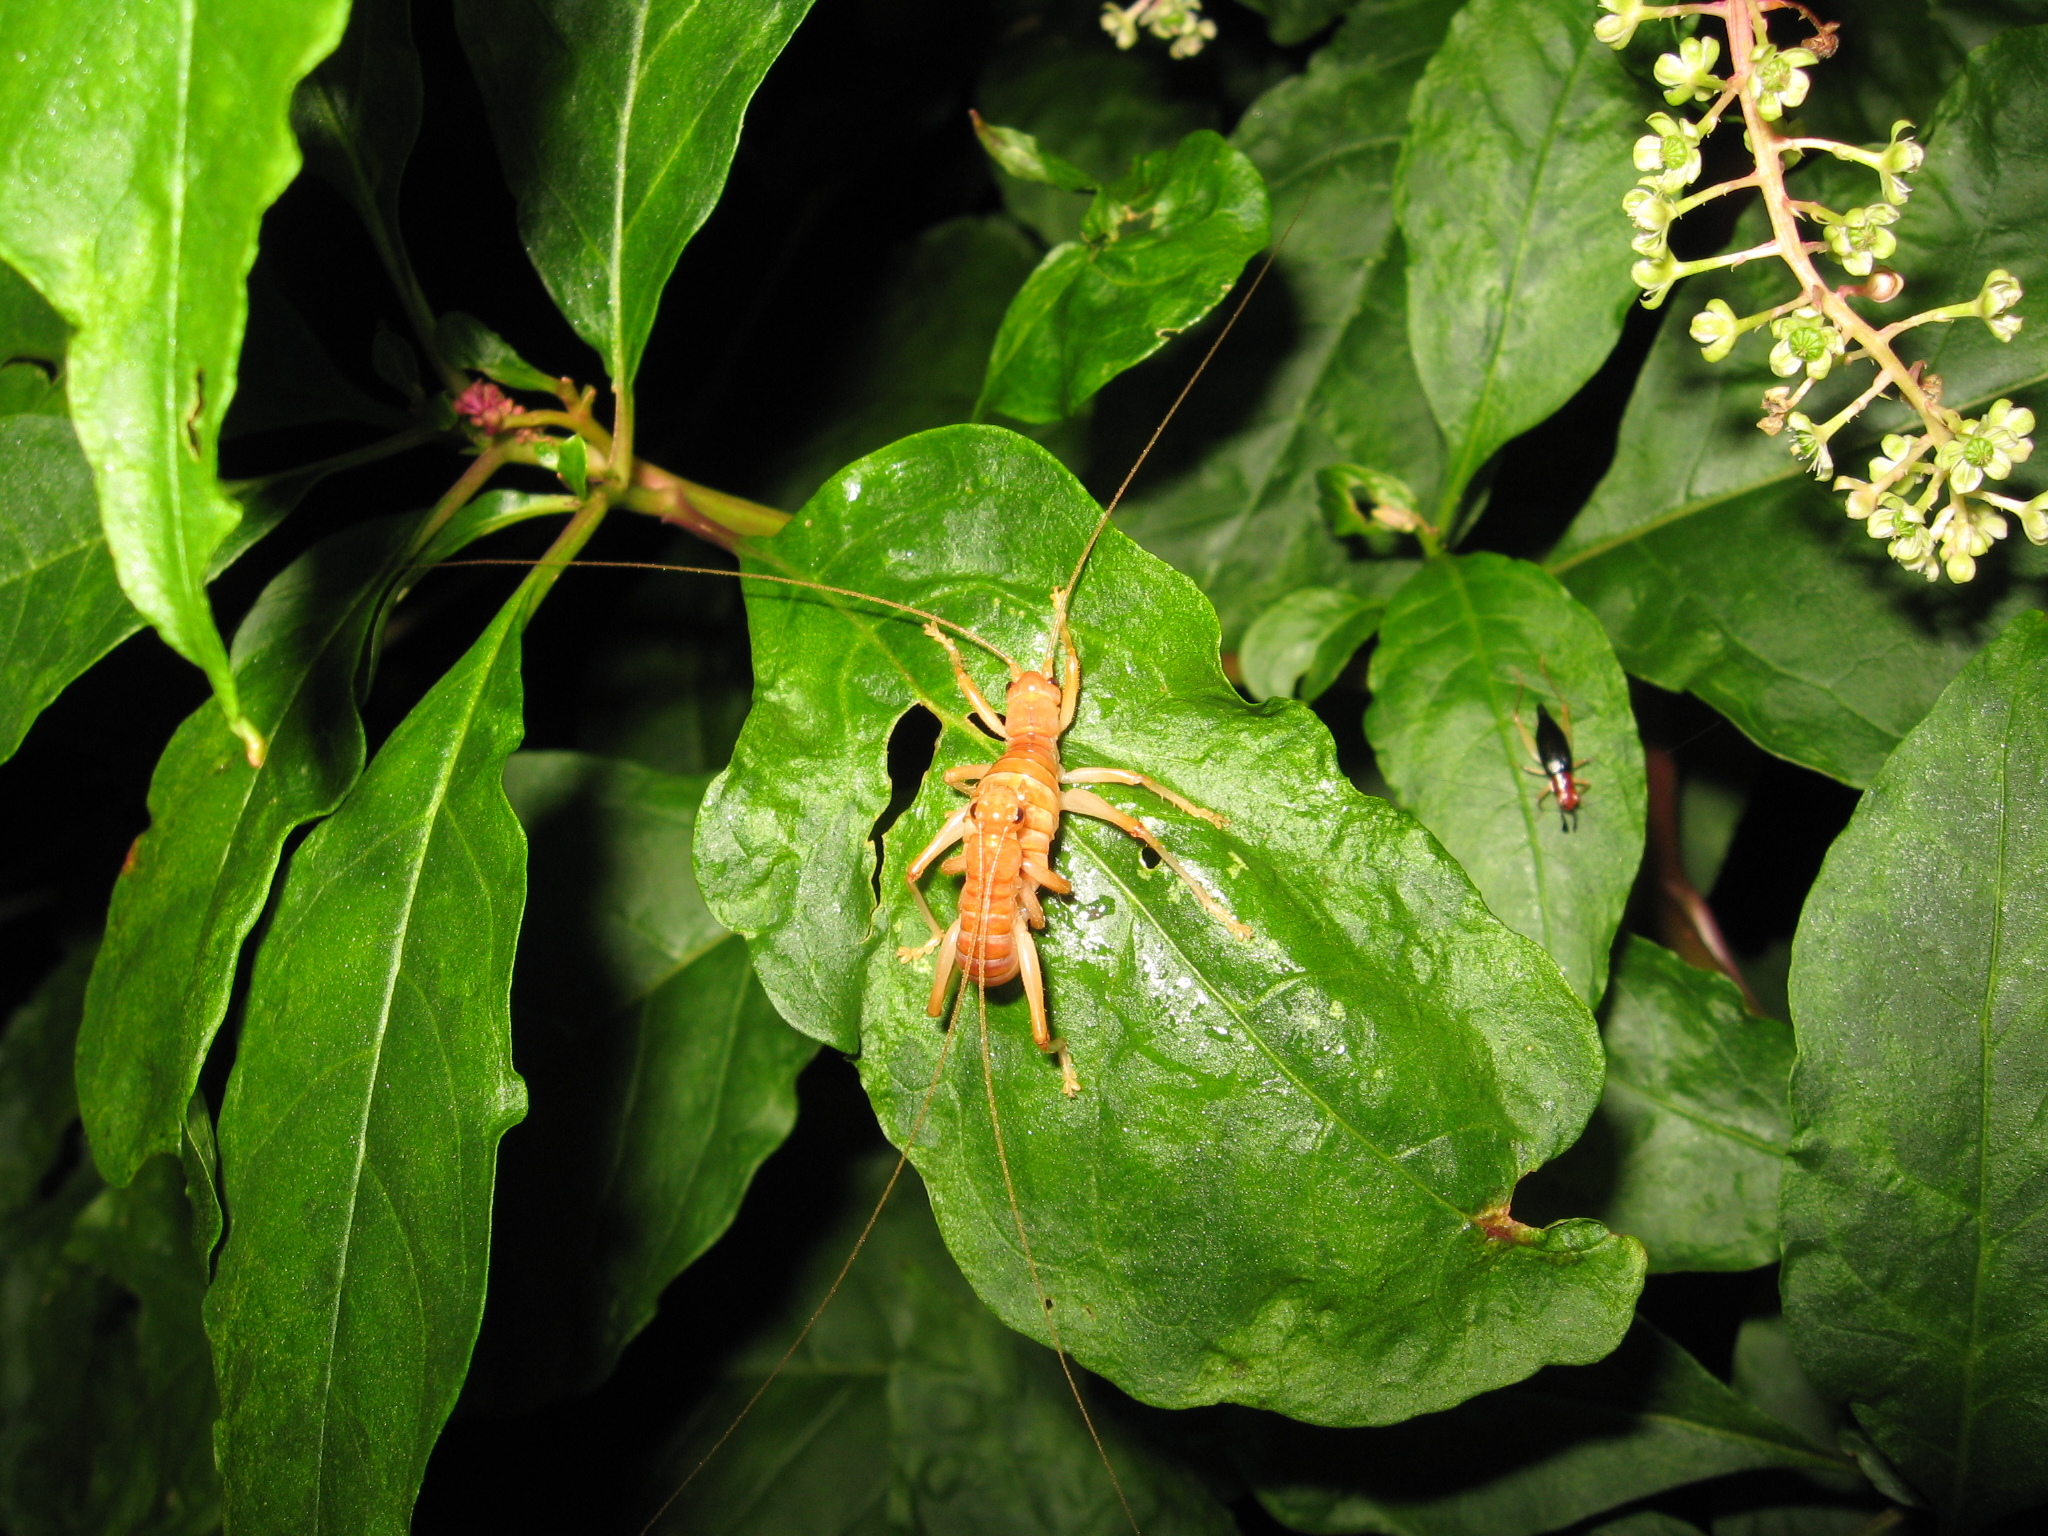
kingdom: Animalia
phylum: Arthropoda
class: Insecta
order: Orthoptera
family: Gryllacrididae
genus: Camptonotus
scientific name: Camptonotus carolinensis
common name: Carolina leaf-roller
